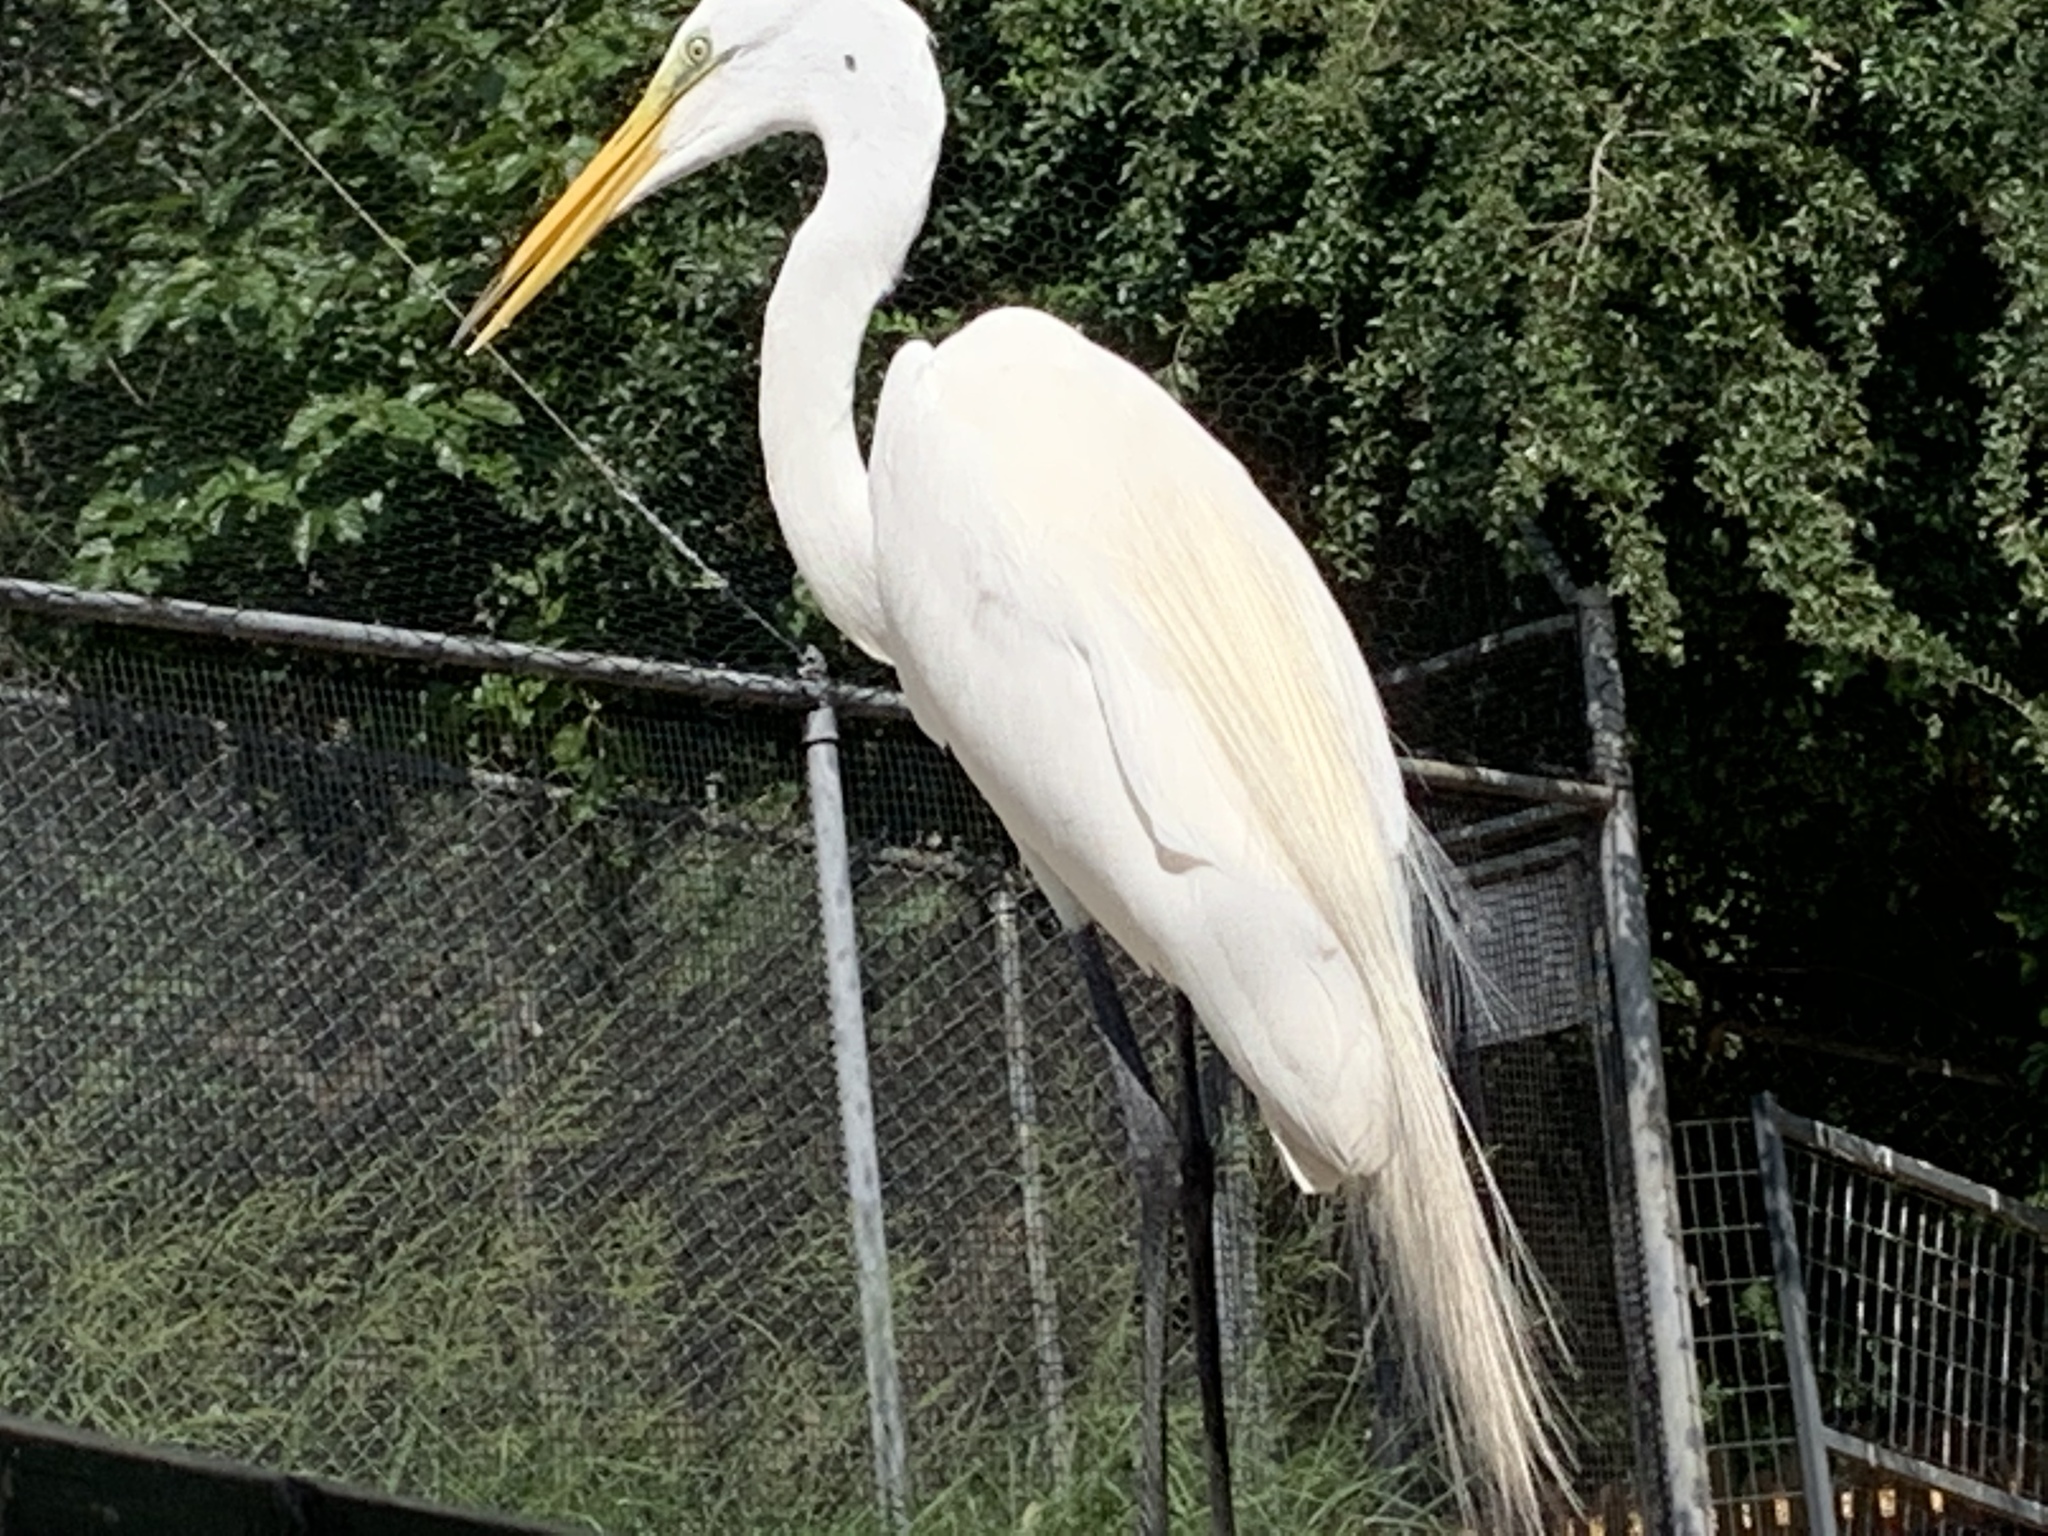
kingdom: Animalia
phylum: Chordata
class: Aves
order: Pelecaniformes
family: Ardeidae
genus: Ardea
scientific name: Ardea alba
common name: Great egret
